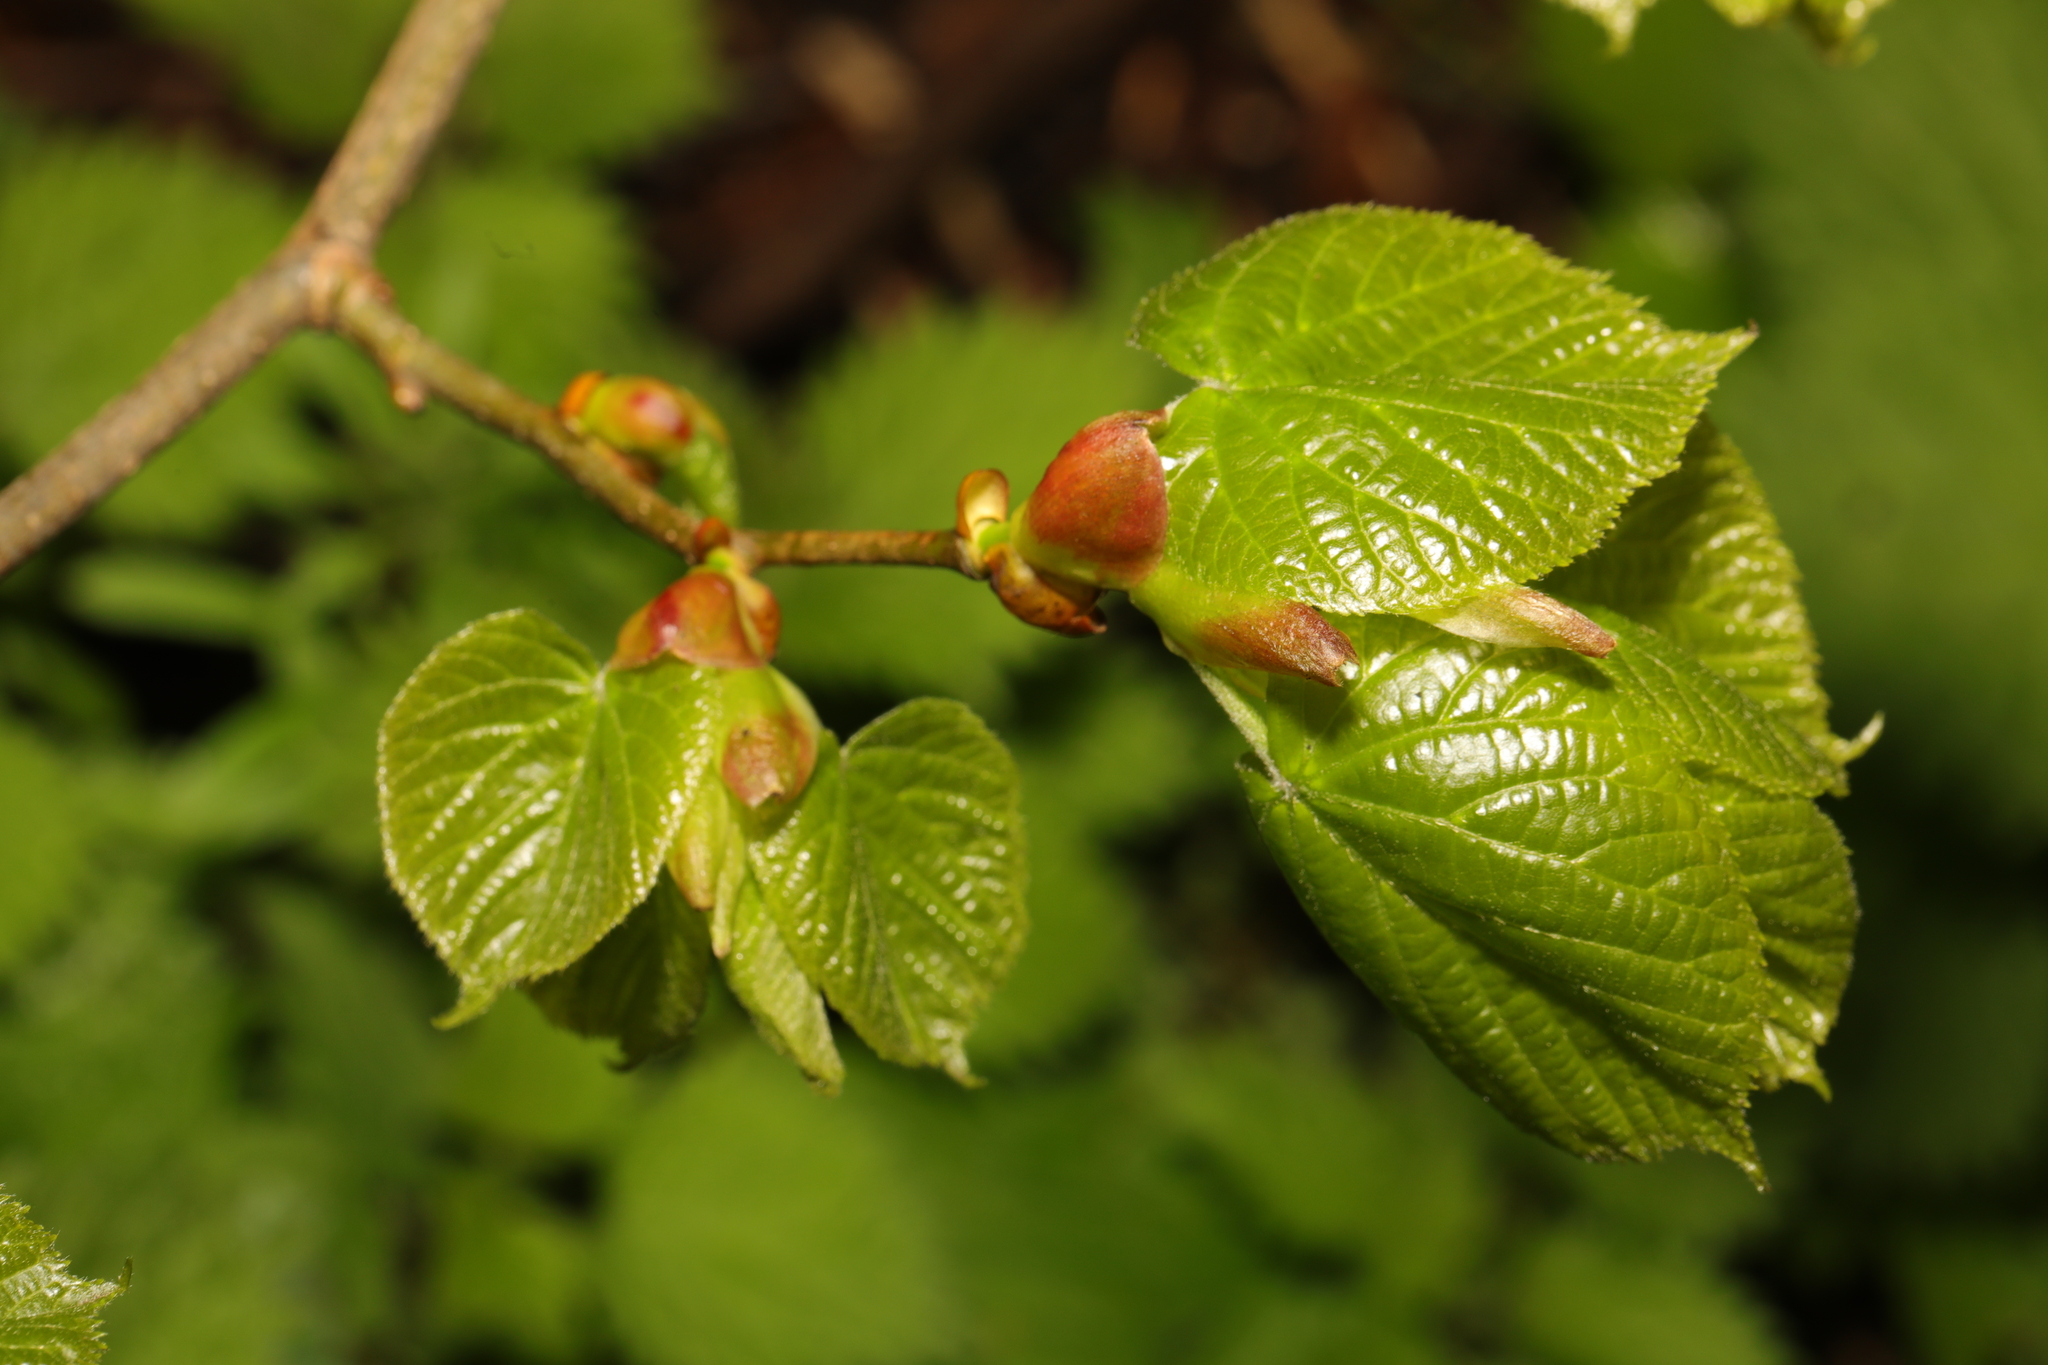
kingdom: Plantae
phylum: Tracheophyta
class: Magnoliopsida
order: Malvales
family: Malvaceae
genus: Tilia
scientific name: Tilia europaea
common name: European linden
